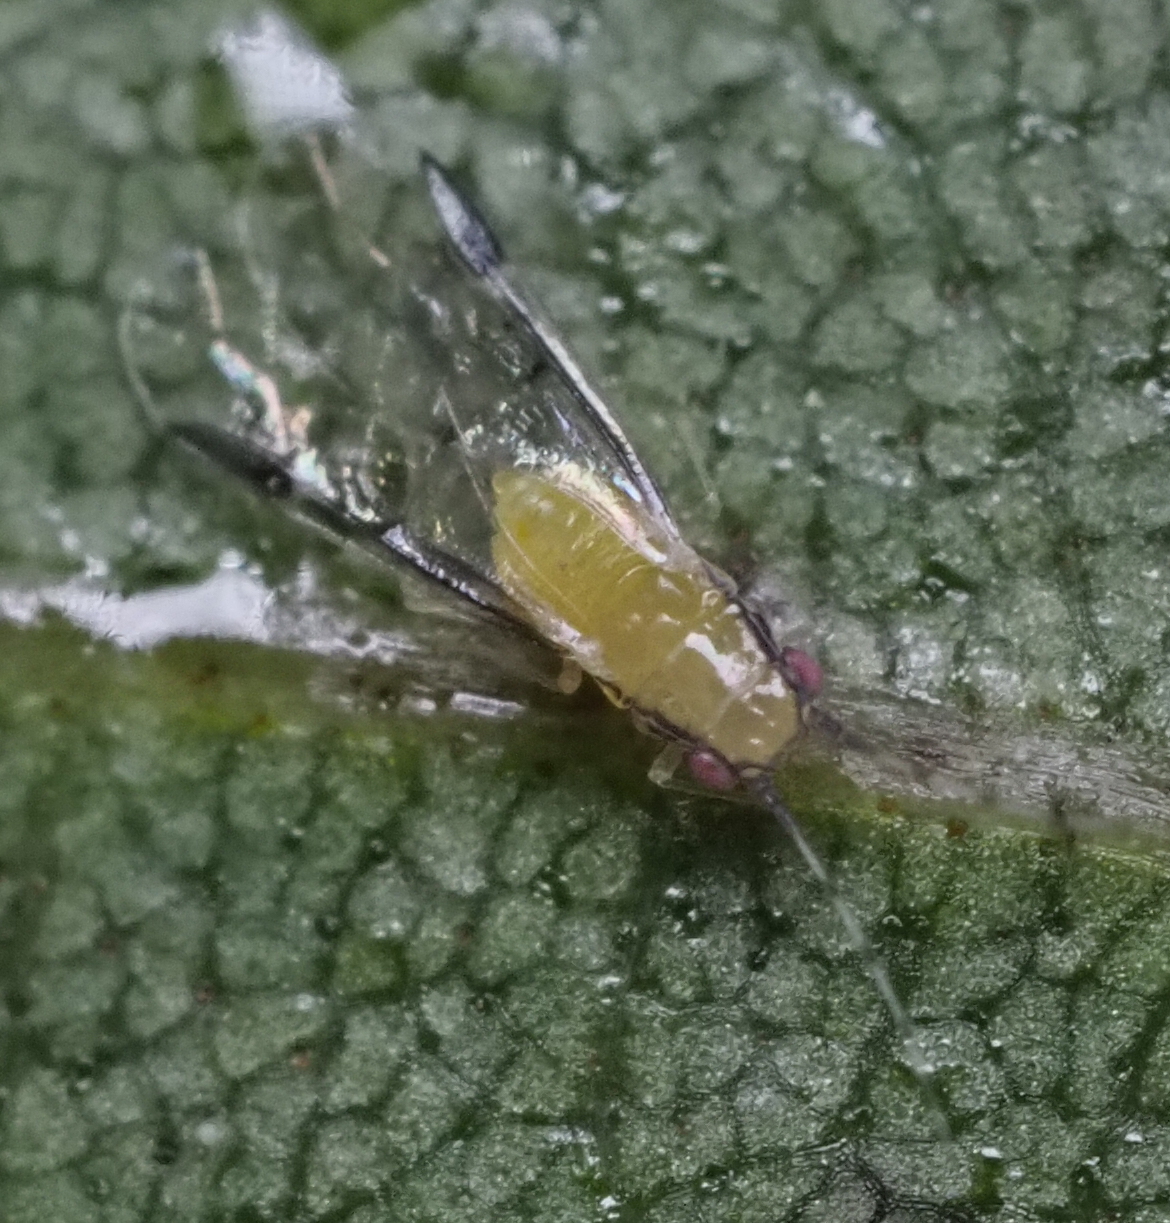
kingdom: Animalia
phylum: Arthropoda
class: Insecta
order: Hemiptera
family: Aphididae
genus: Monellia
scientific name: Monellia caryella
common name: Blackmargined aphid
